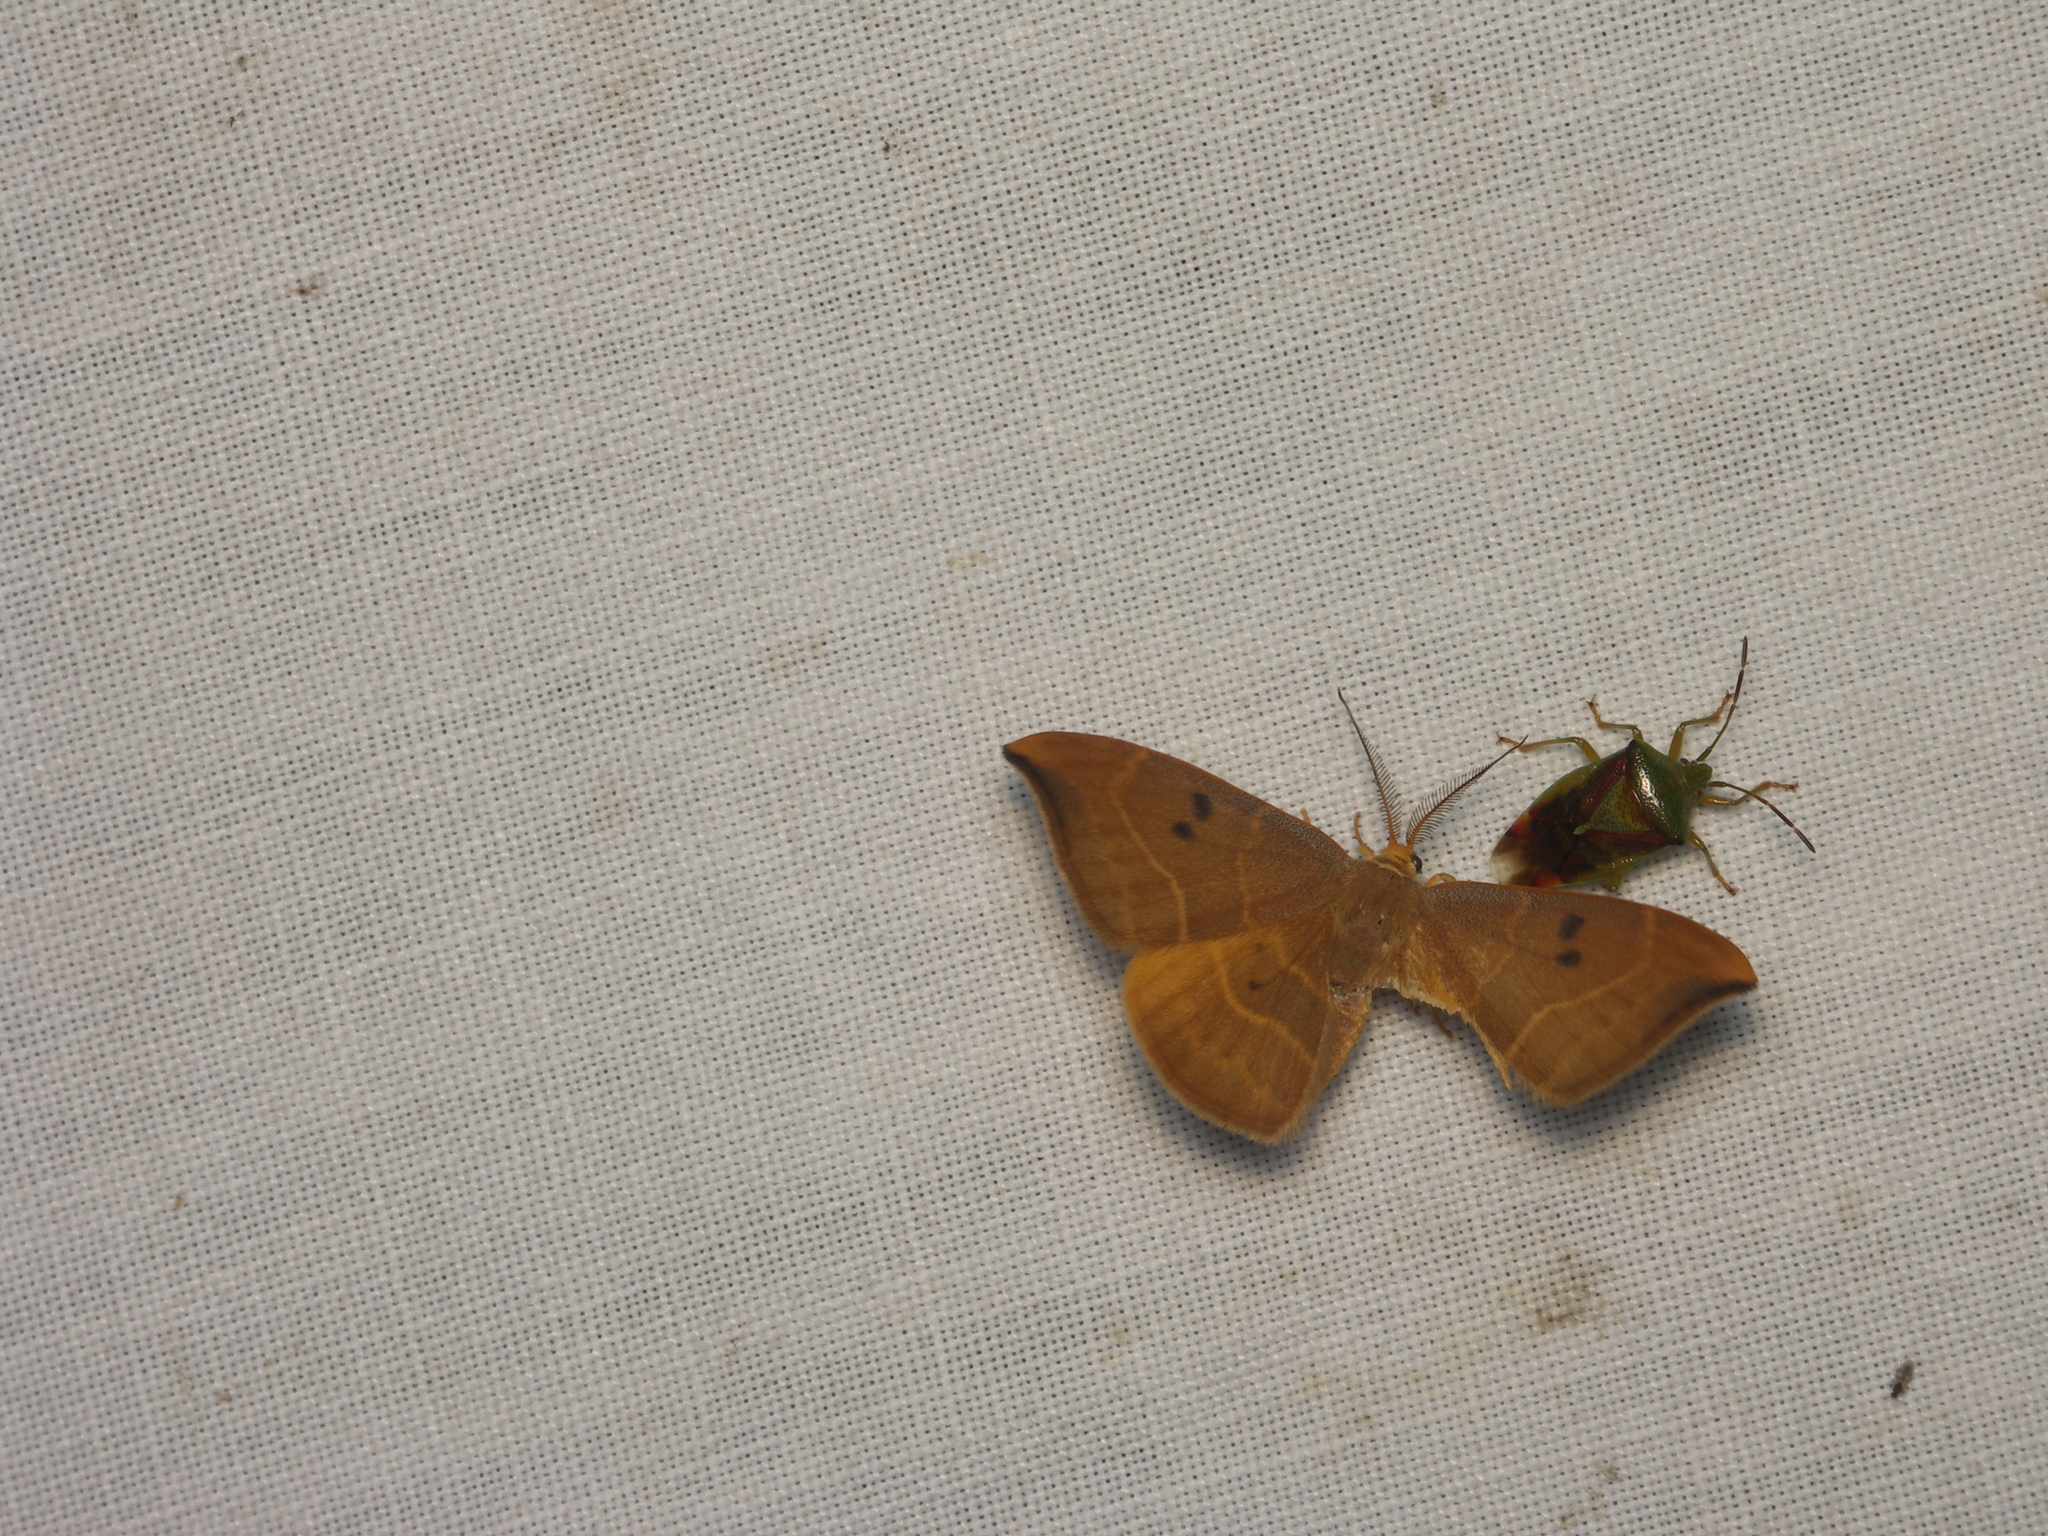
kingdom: Animalia
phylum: Arthropoda
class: Insecta
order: Lepidoptera
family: Drepanidae
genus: Watsonalla
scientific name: Watsonalla binaria
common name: Oak hook-tip
